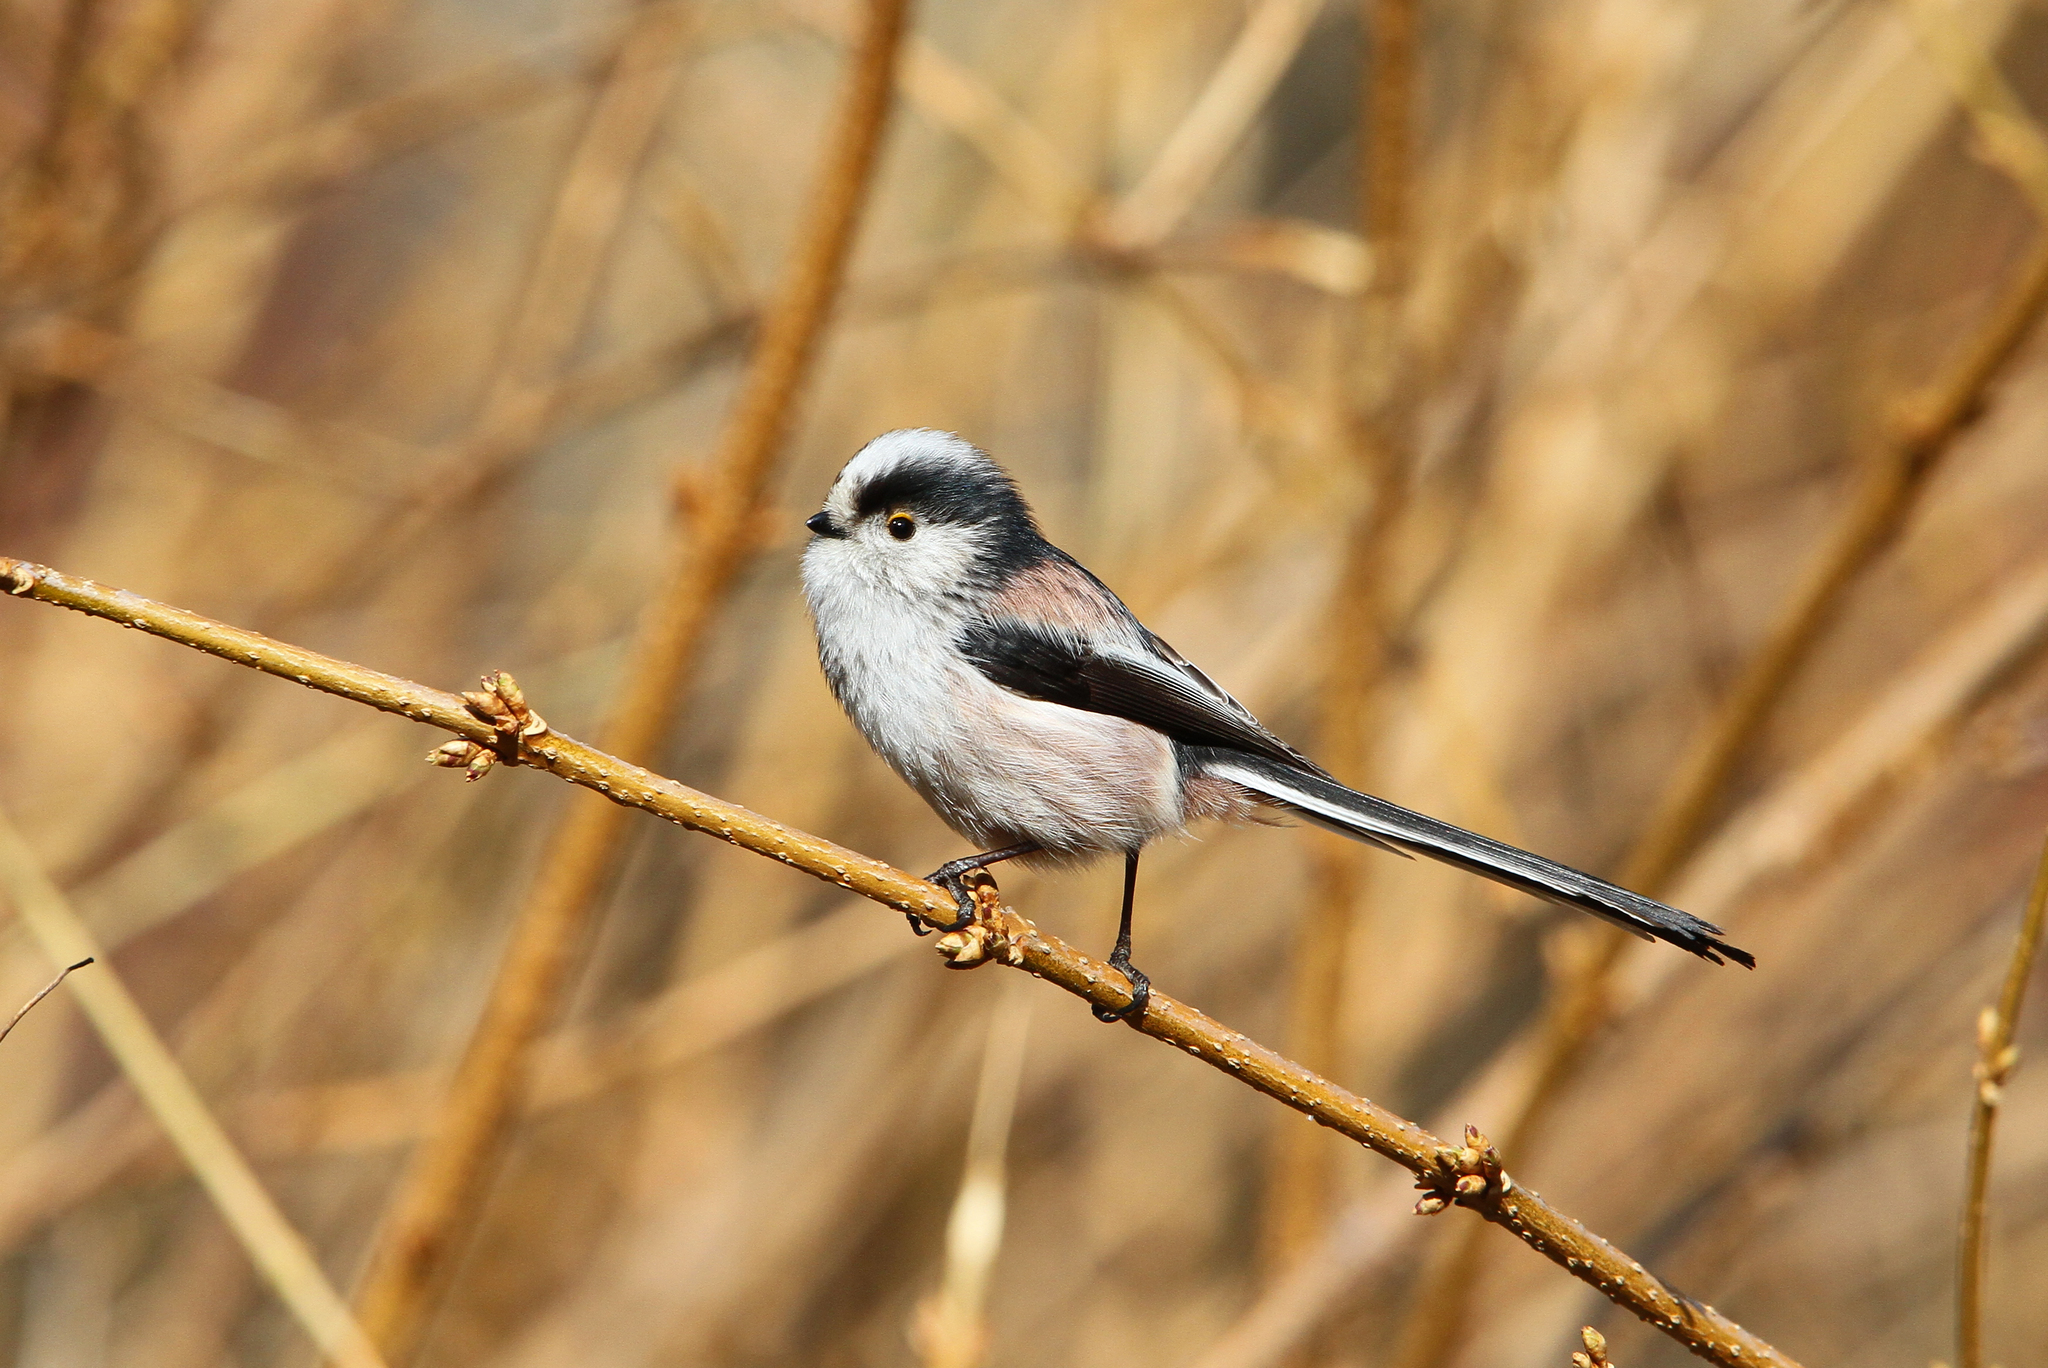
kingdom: Animalia
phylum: Chordata
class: Aves
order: Passeriformes
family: Aegithalidae
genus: Aegithalos
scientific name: Aegithalos caudatus
